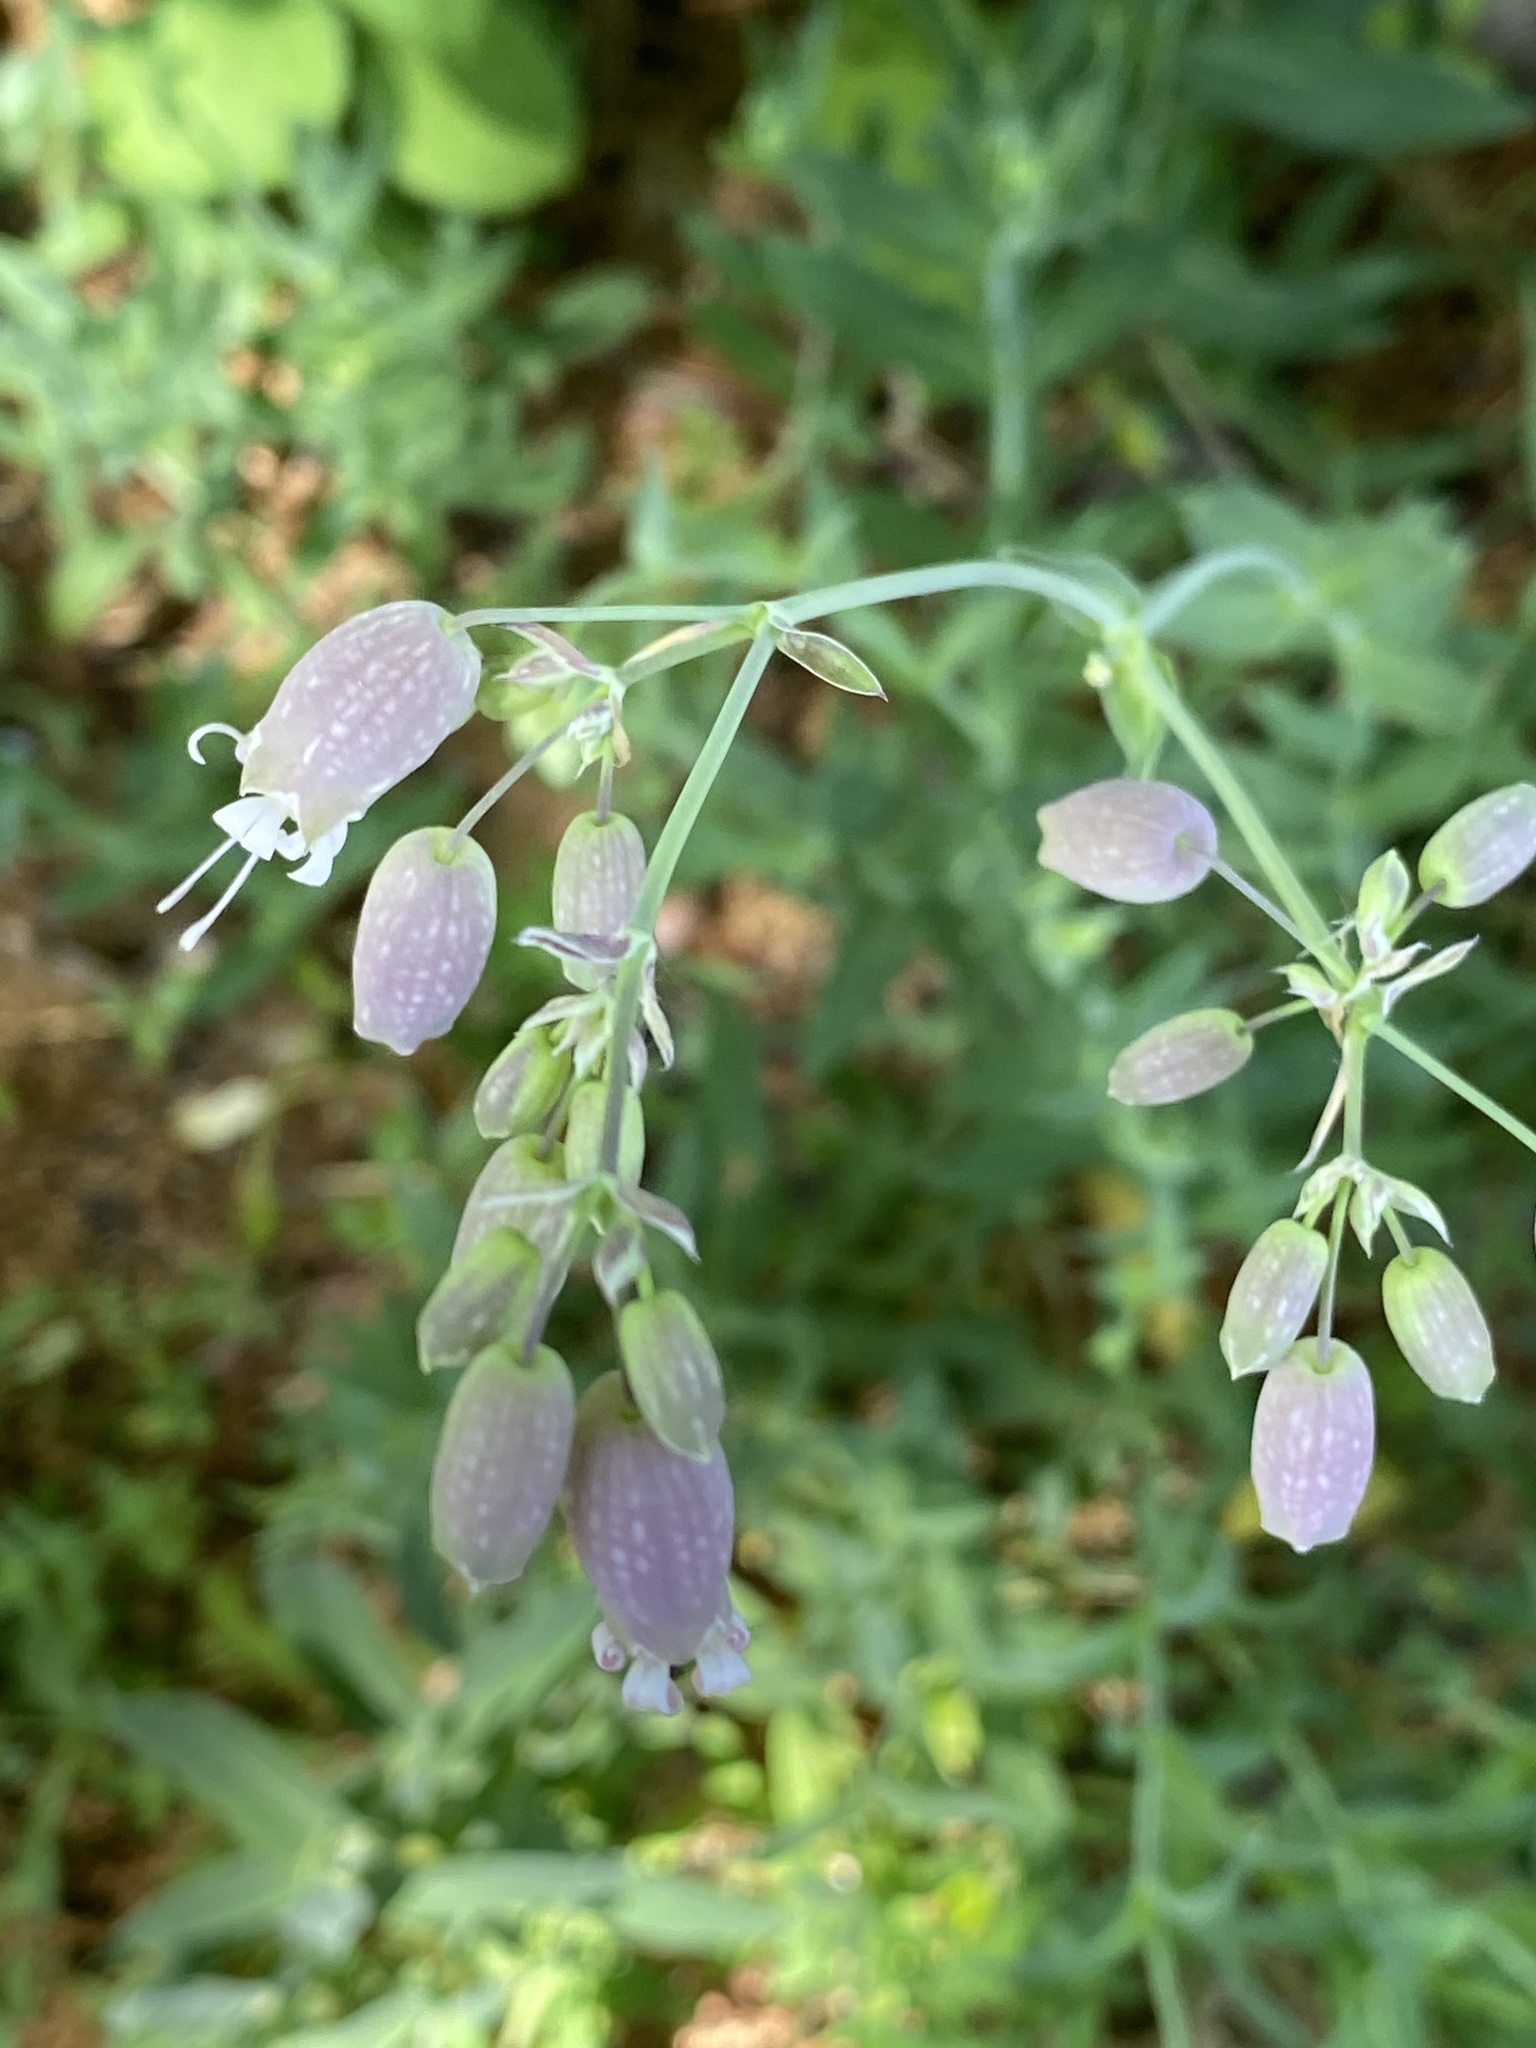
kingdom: Plantae
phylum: Tracheophyta
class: Magnoliopsida
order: Caryophyllales
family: Caryophyllaceae
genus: Silene
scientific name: Silene vulgaris
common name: Bladder campion
